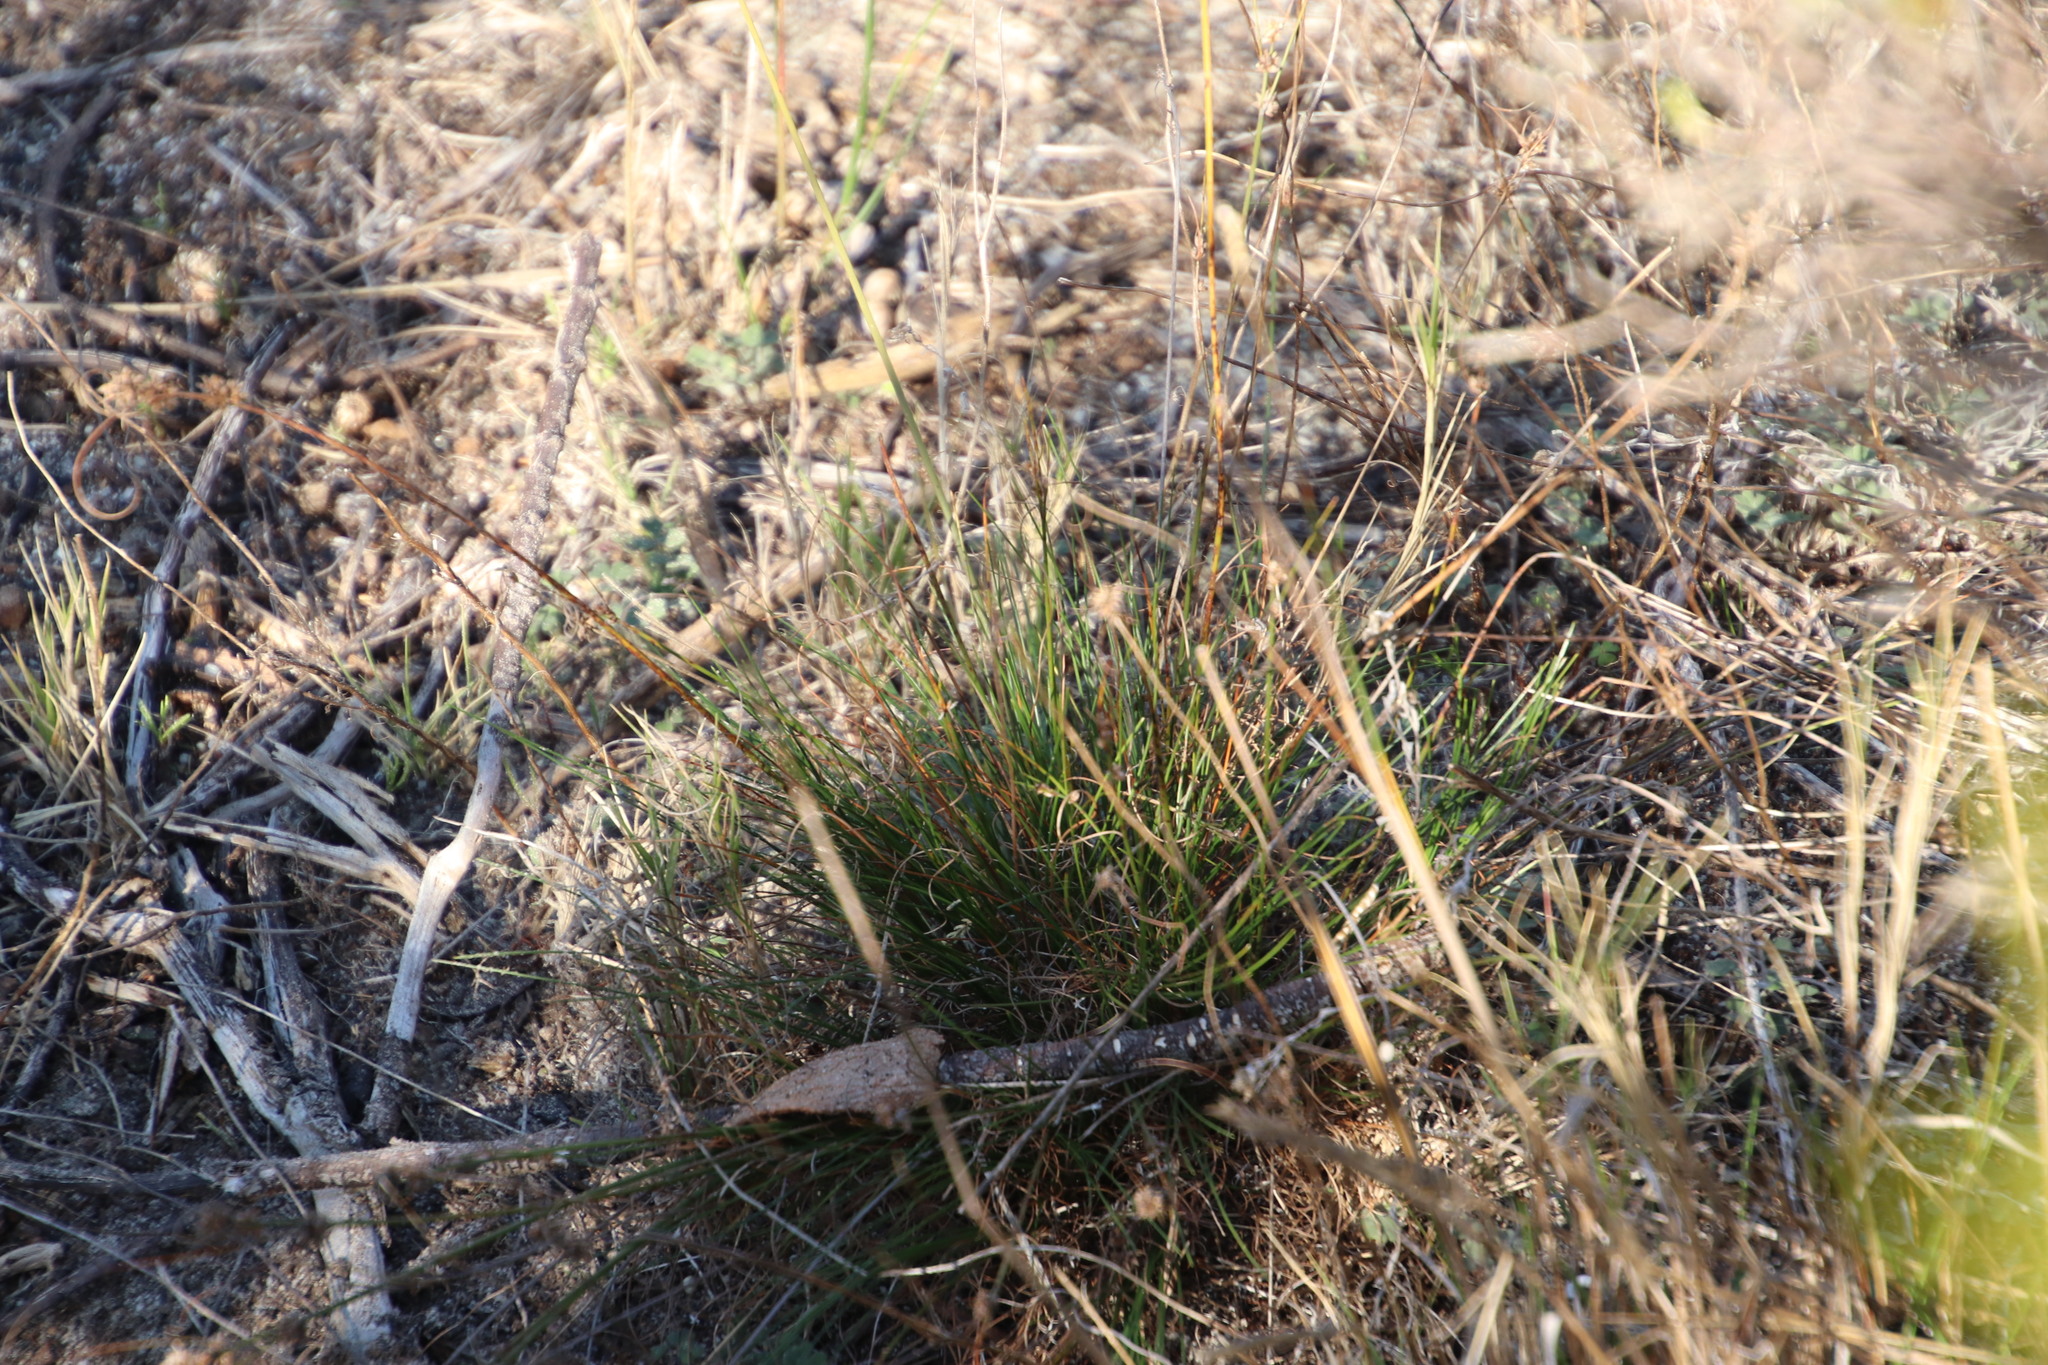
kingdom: Plantae
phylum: Tracheophyta
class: Liliopsida
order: Poales
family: Cyperaceae
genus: Ficinia
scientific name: Ficinia bulbosa
